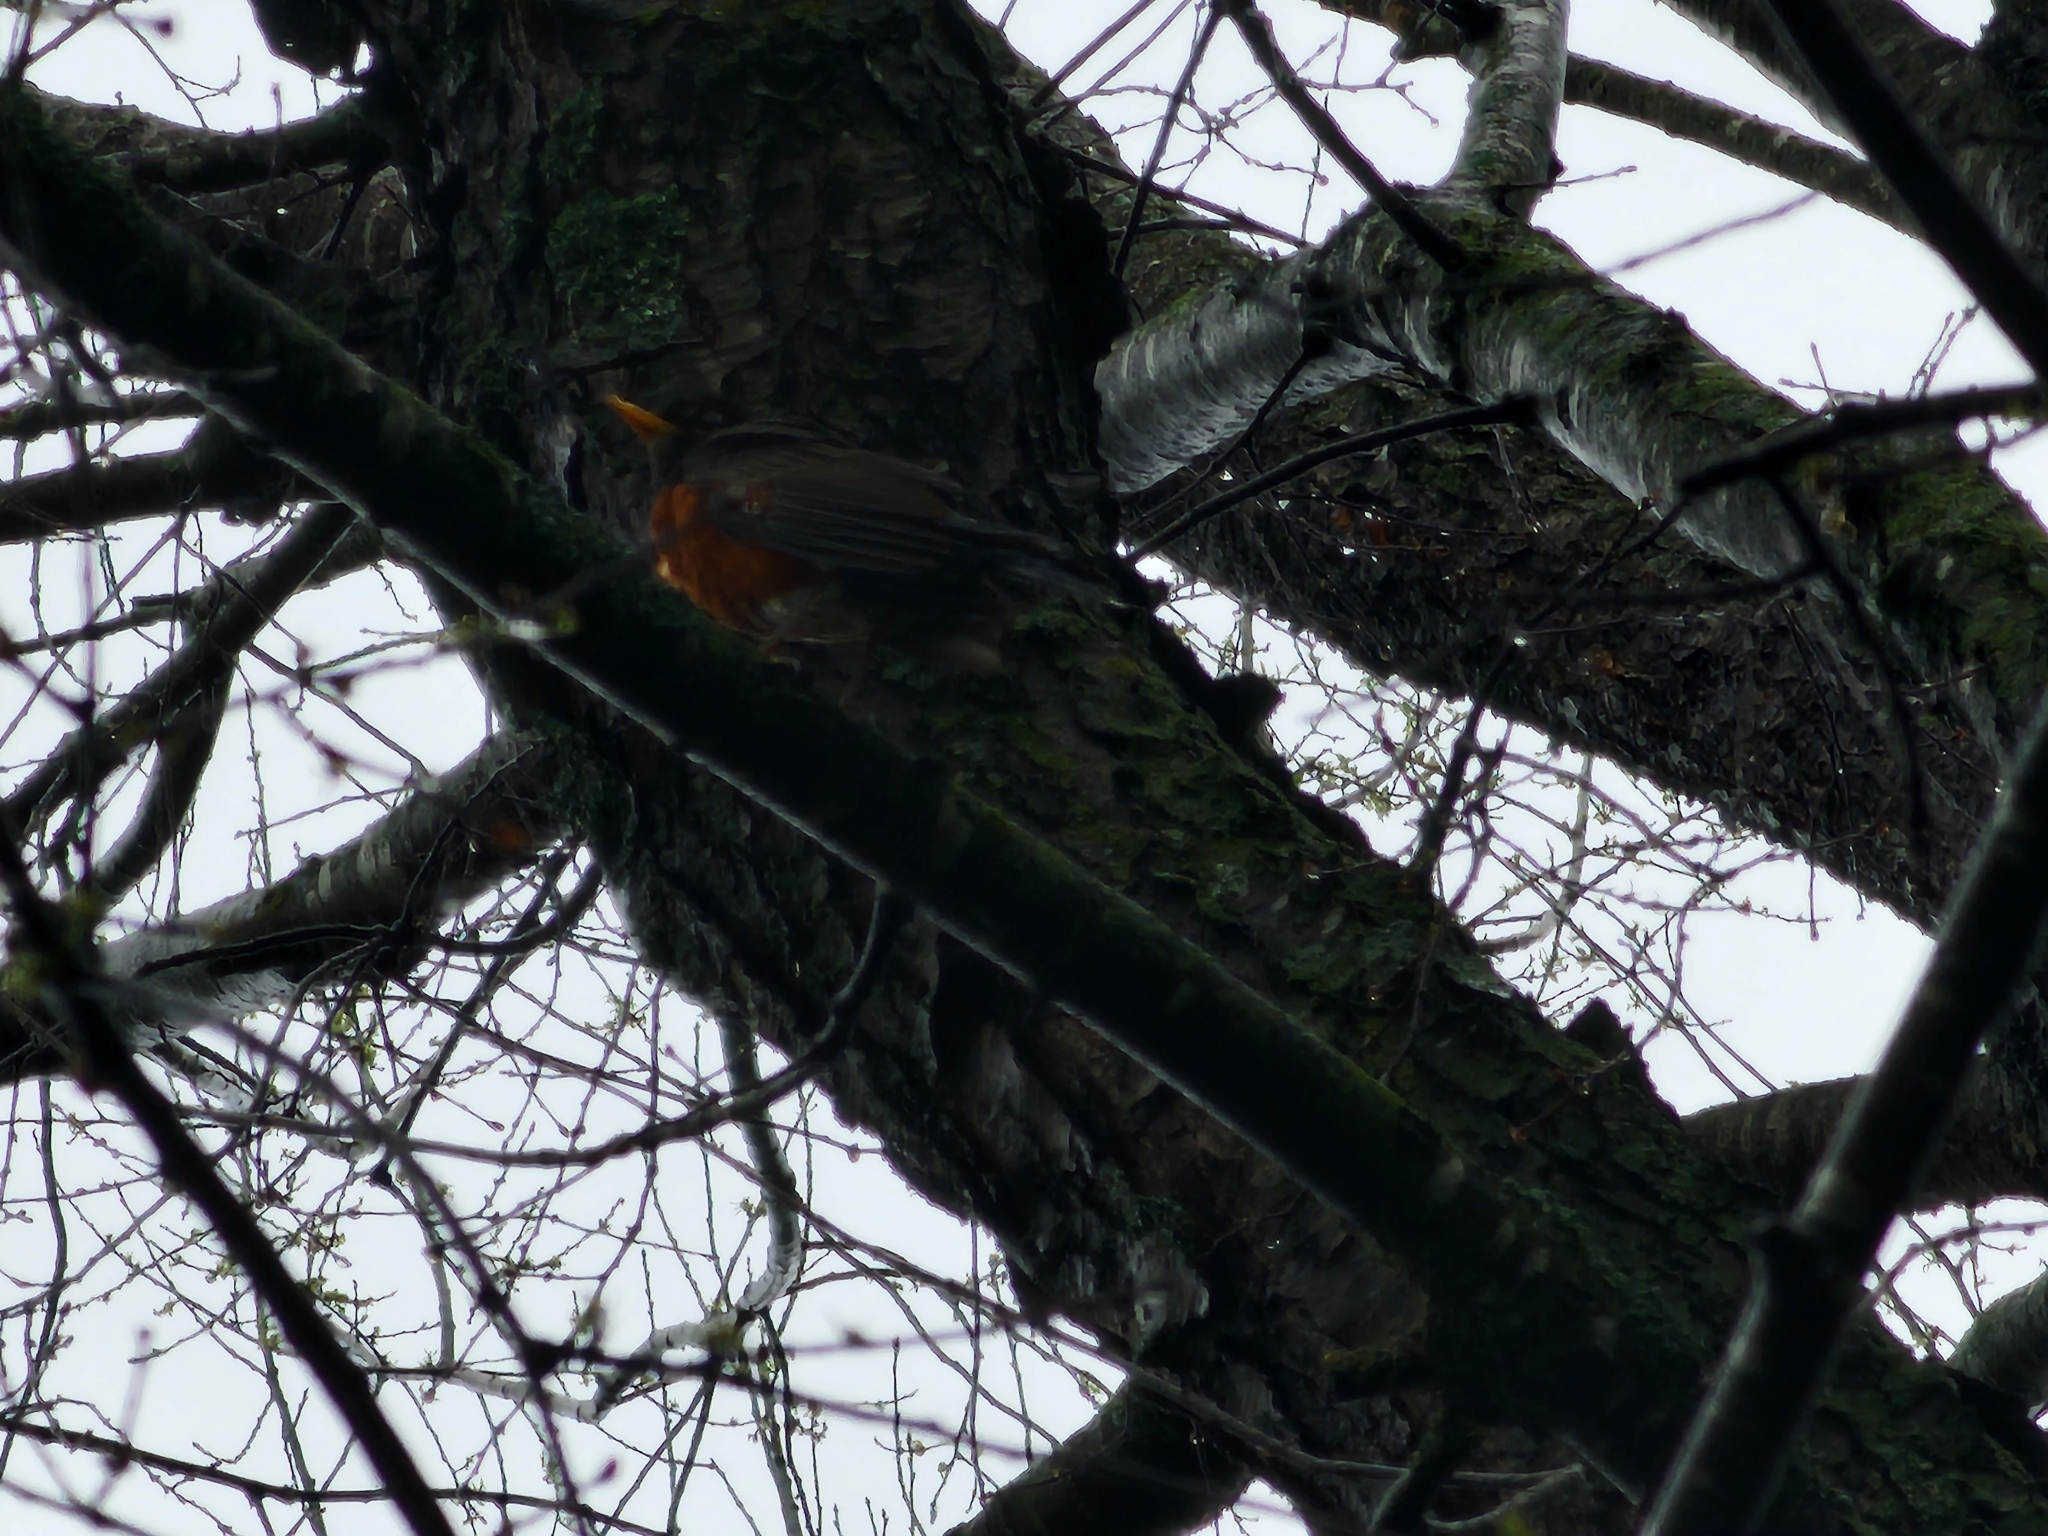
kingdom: Animalia
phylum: Chordata
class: Aves
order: Passeriformes
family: Turdidae
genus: Turdus
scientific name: Turdus migratorius
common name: American robin
